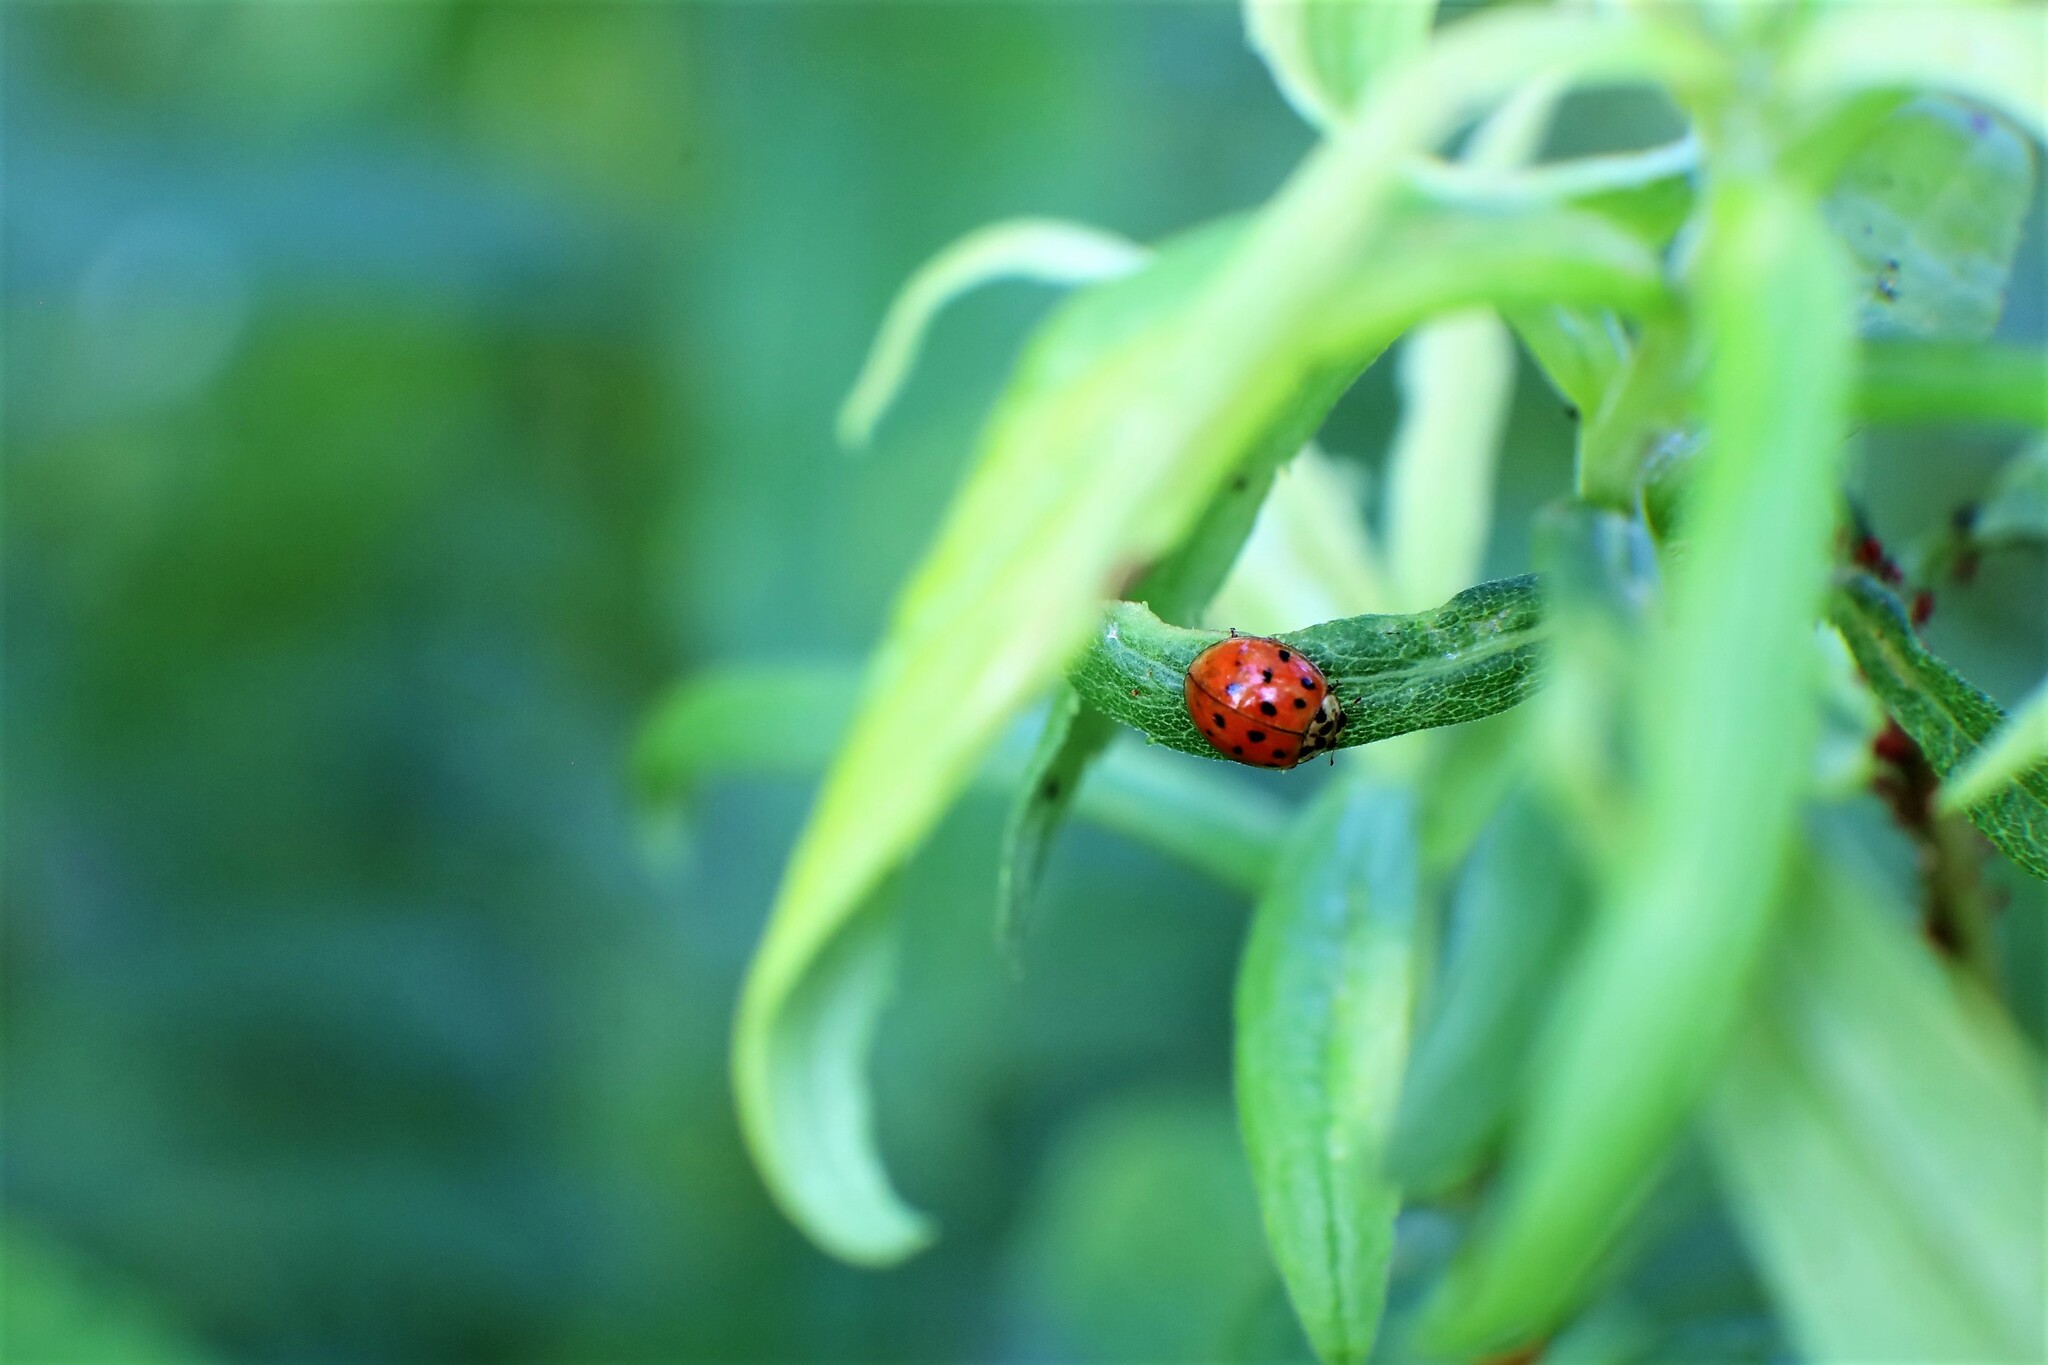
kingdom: Animalia
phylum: Arthropoda
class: Insecta
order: Coleoptera
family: Coccinellidae
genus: Harmonia
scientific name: Harmonia axyridis
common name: Harlequin ladybird
